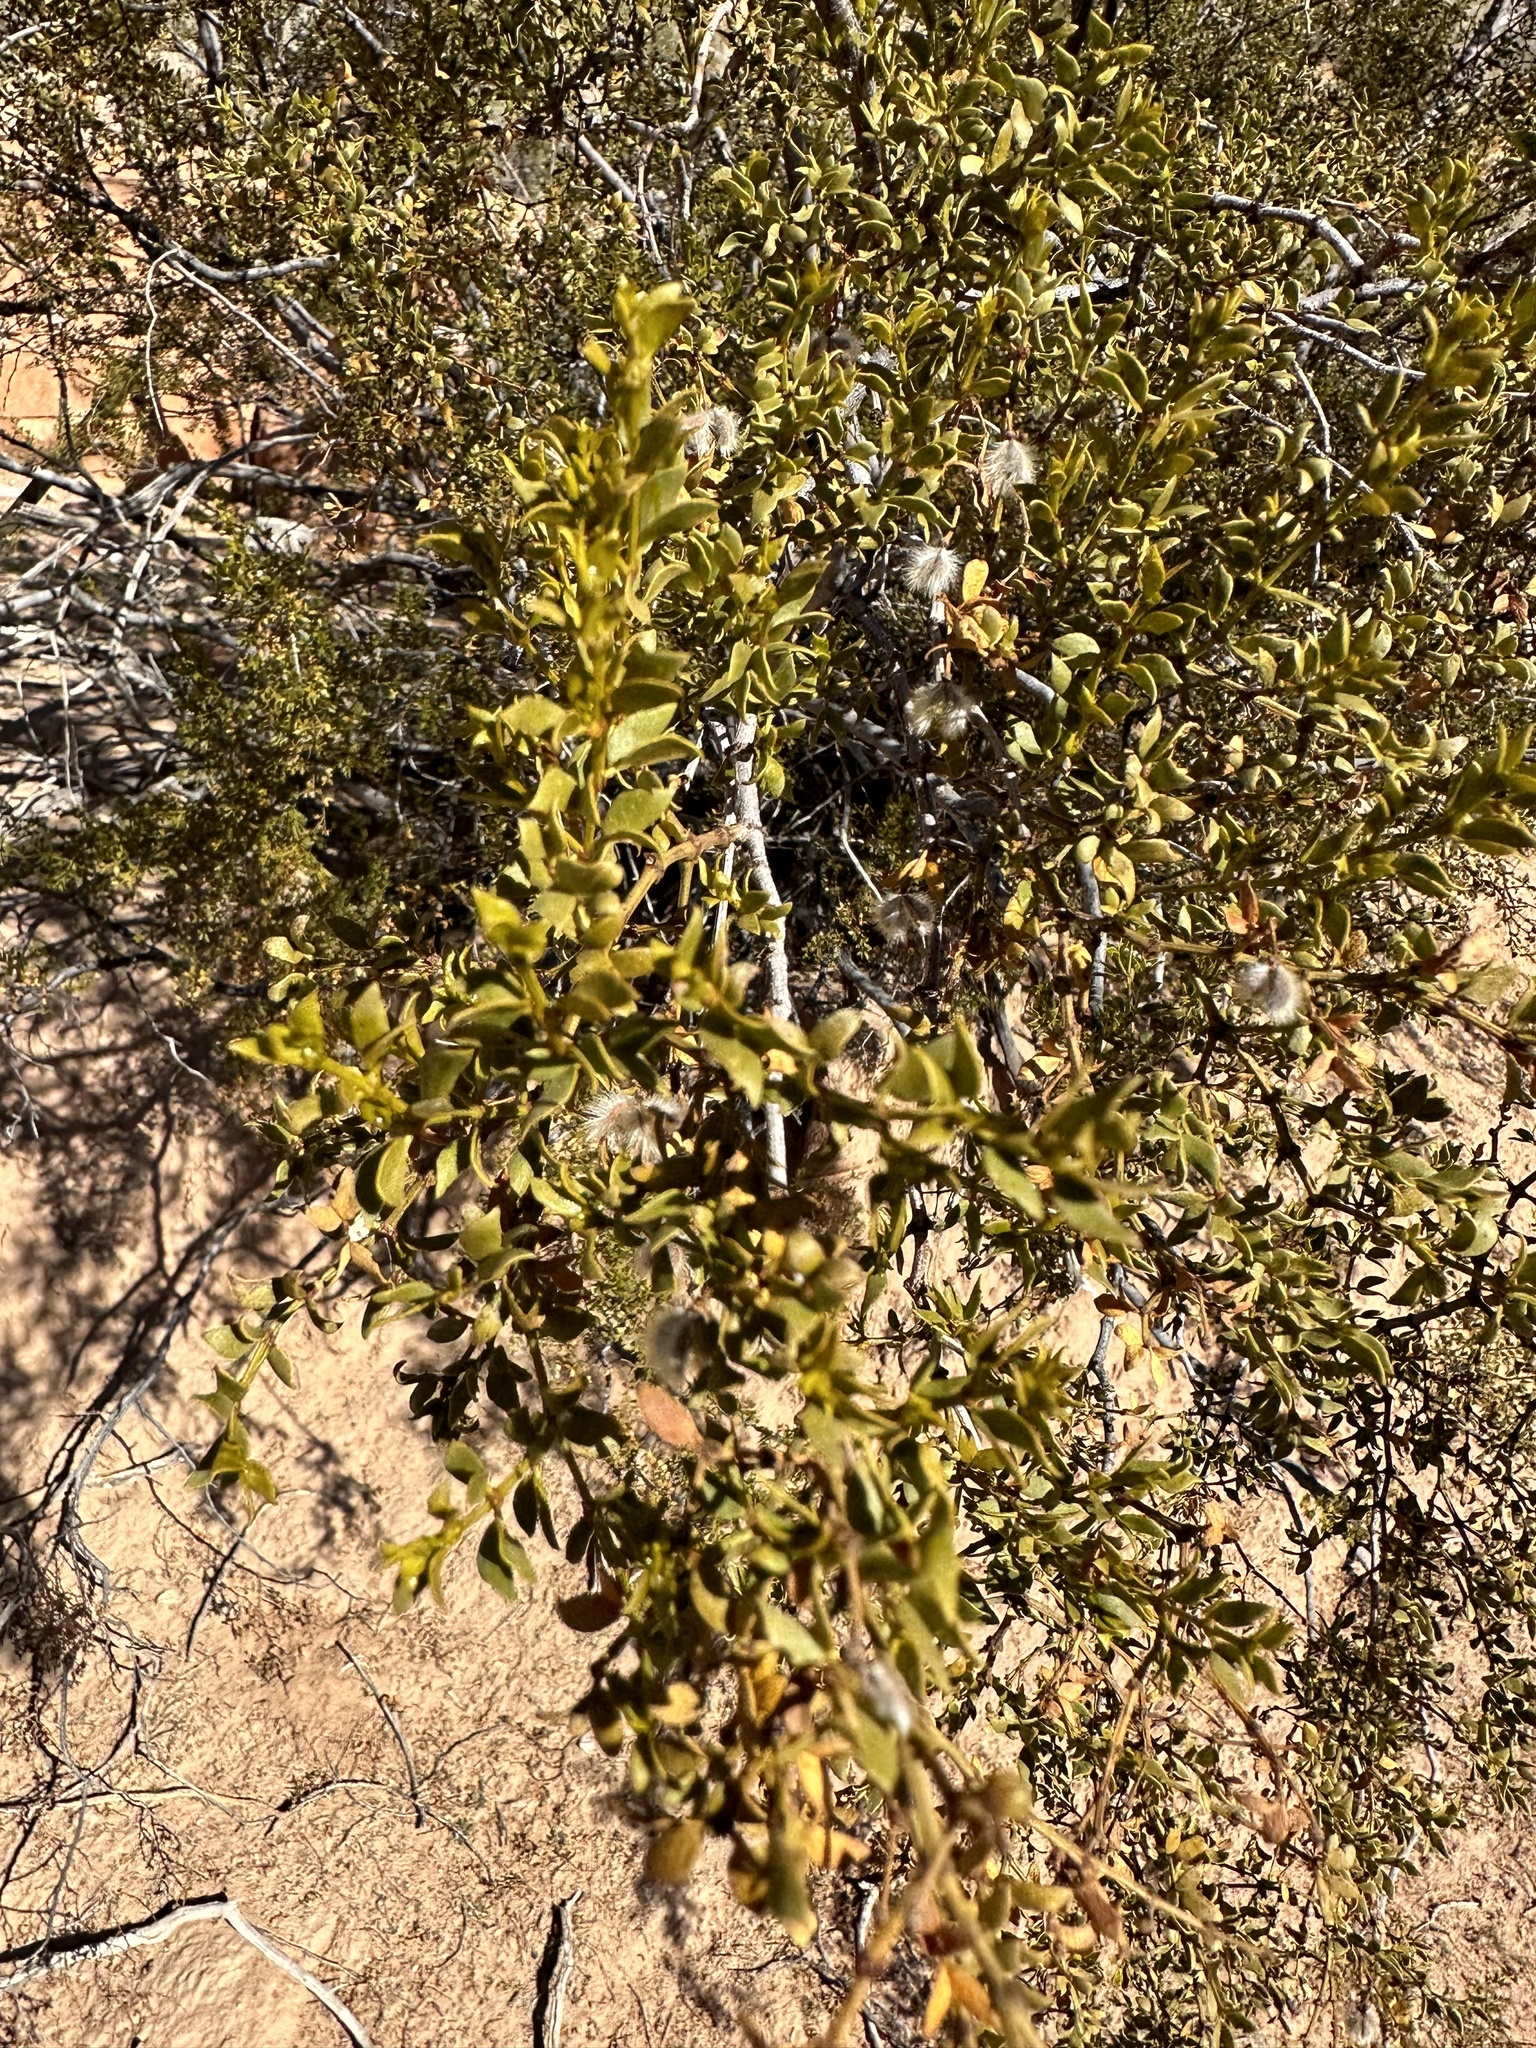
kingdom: Plantae
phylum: Tracheophyta
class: Magnoliopsida
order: Zygophyllales
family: Zygophyllaceae
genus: Larrea
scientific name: Larrea tridentata
